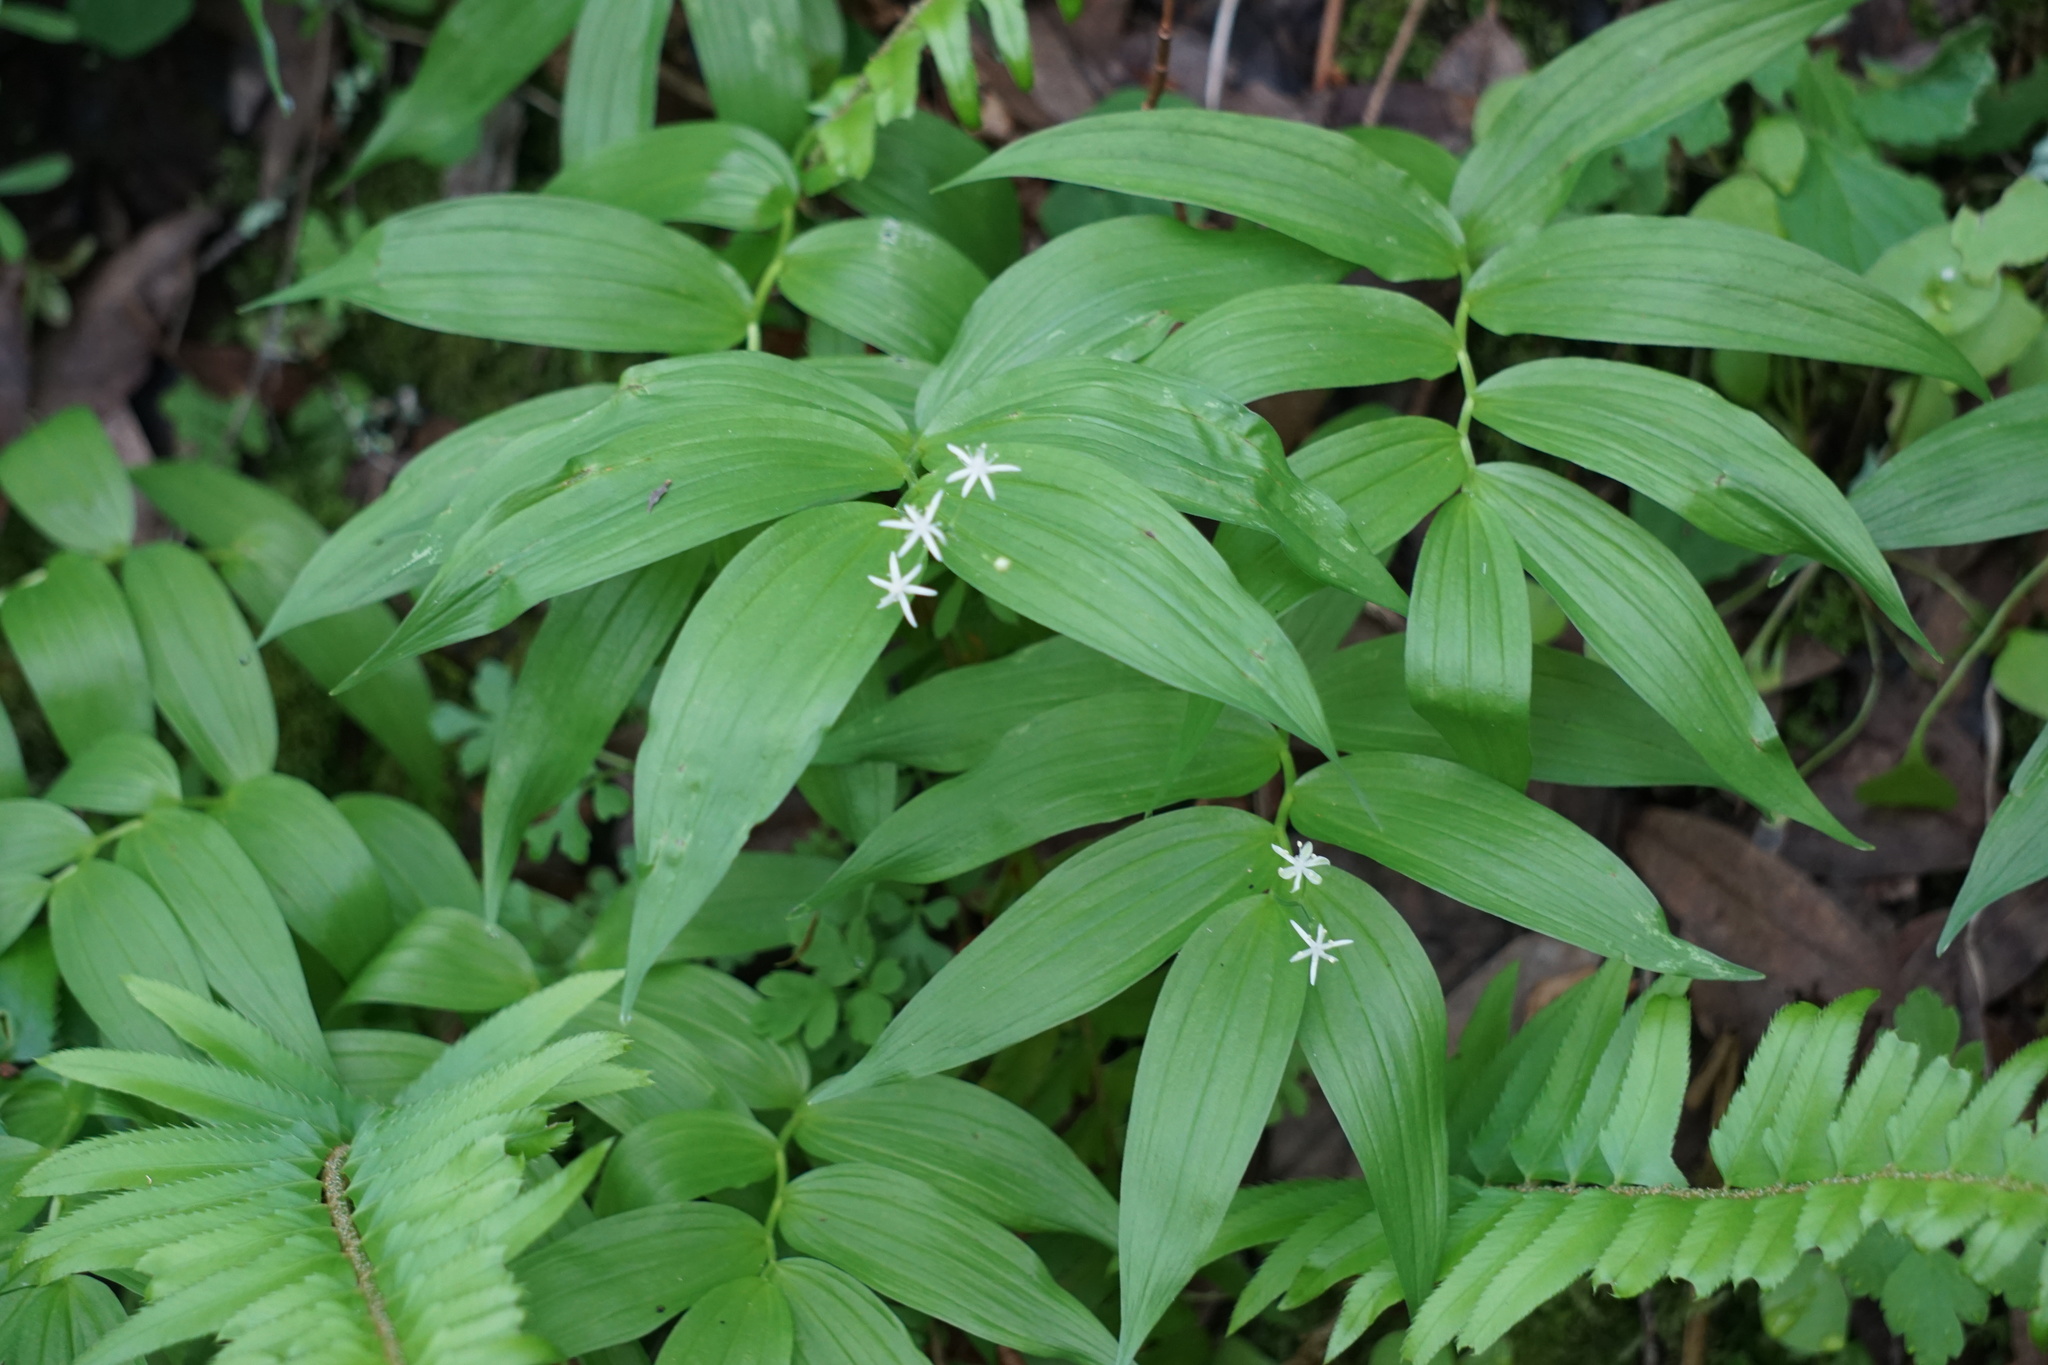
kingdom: Plantae
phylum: Tracheophyta
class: Liliopsida
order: Asparagales
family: Asparagaceae
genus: Maianthemum
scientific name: Maianthemum stellatum
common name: Little false solomon's seal
